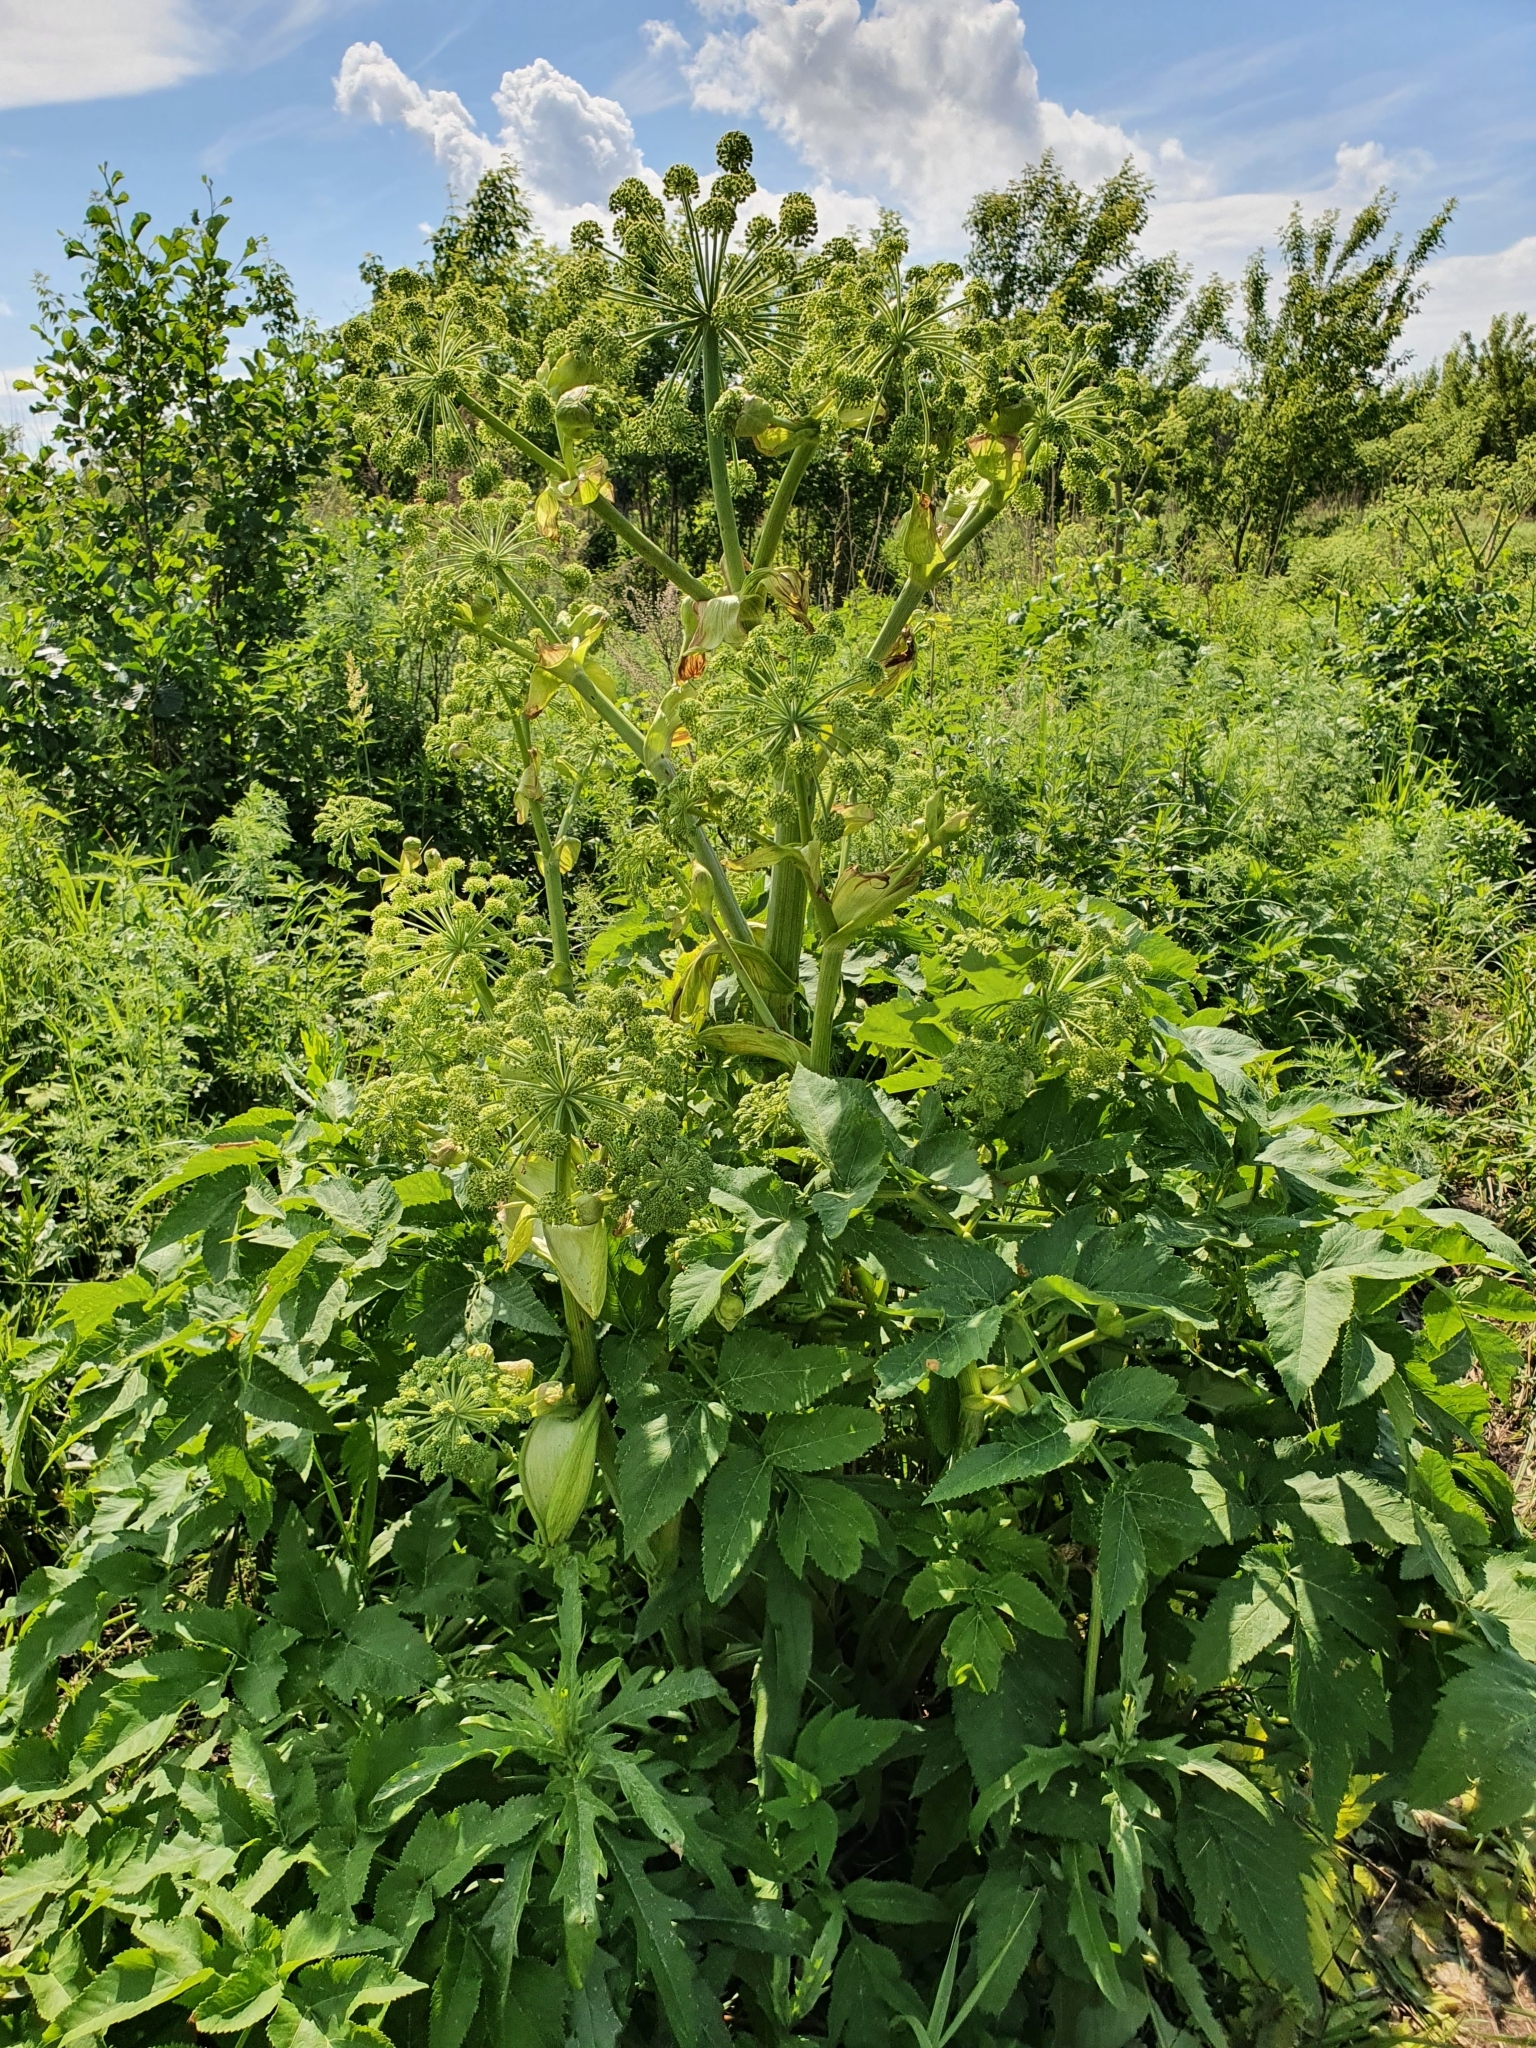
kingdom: Plantae
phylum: Tracheophyta
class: Magnoliopsida
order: Apiales
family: Apiaceae
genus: Angelica
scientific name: Angelica archangelica
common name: Garden angelica
